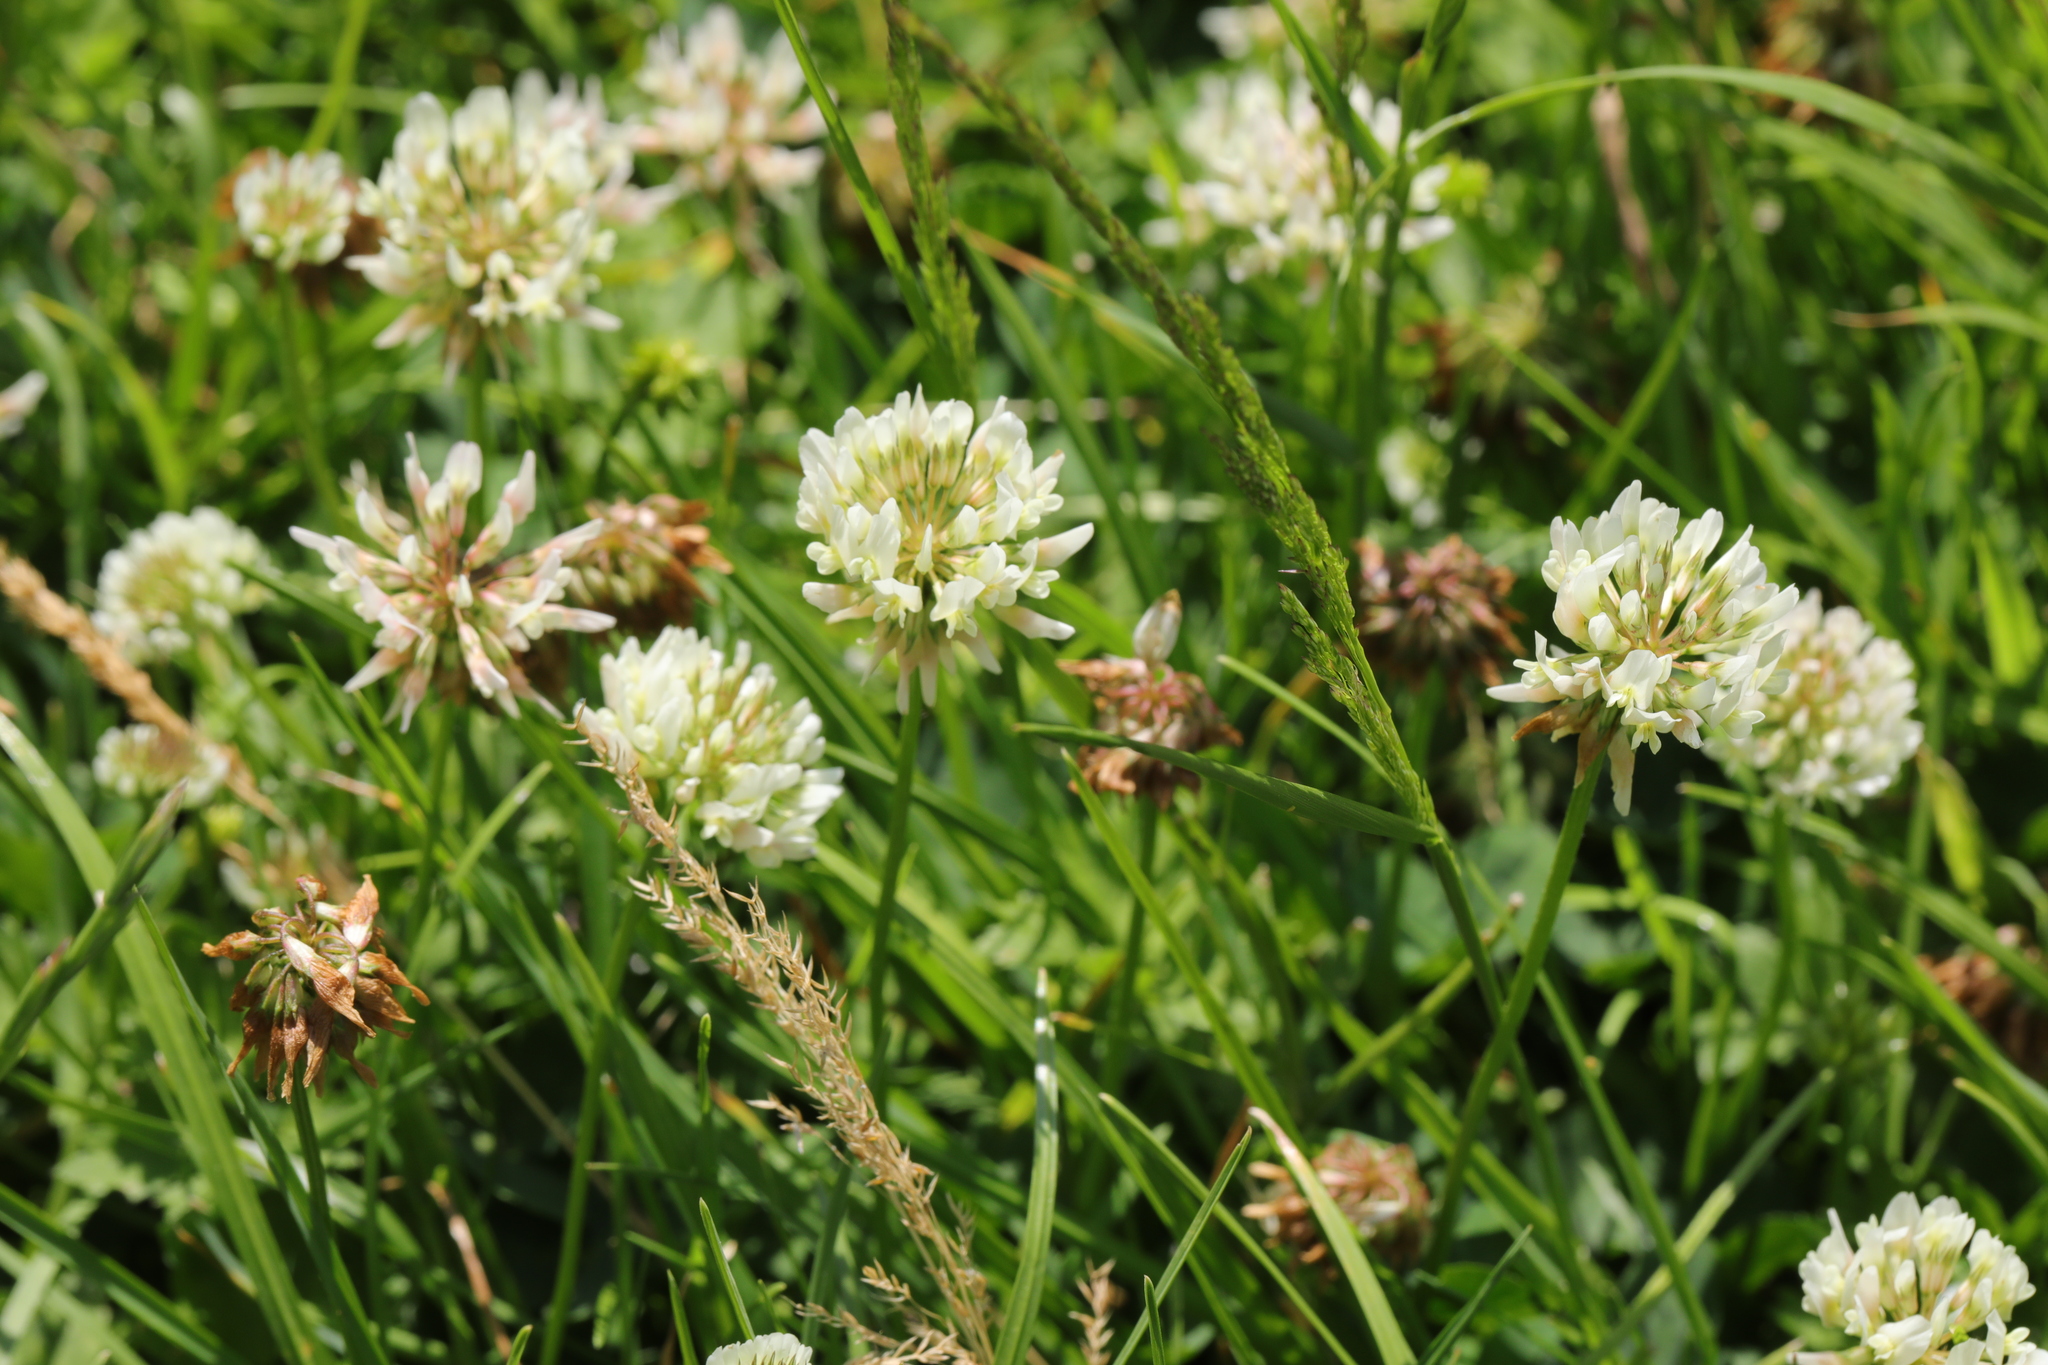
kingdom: Plantae
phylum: Tracheophyta
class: Magnoliopsida
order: Fabales
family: Fabaceae
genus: Trifolium
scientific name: Trifolium repens
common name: White clover
